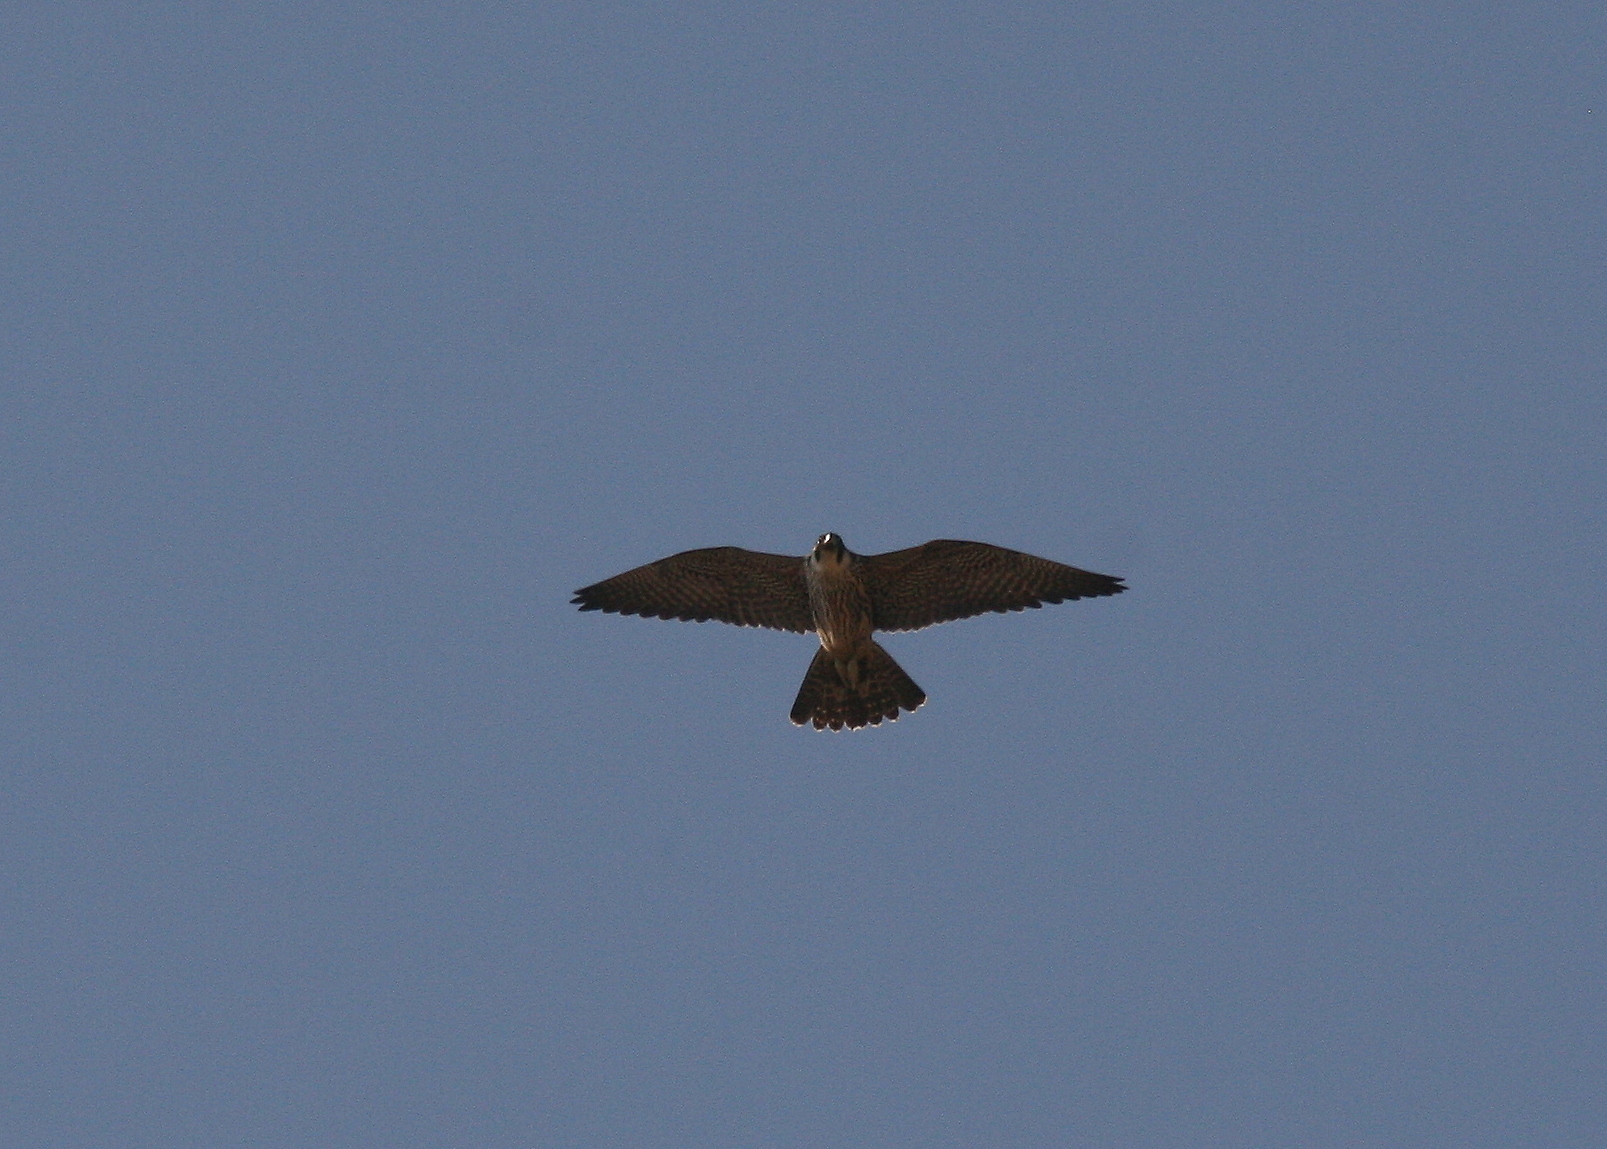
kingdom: Animalia
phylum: Chordata
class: Aves
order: Falconiformes
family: Falconidae
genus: Falco
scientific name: Falco peregrinus
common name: Peregrine falcon
